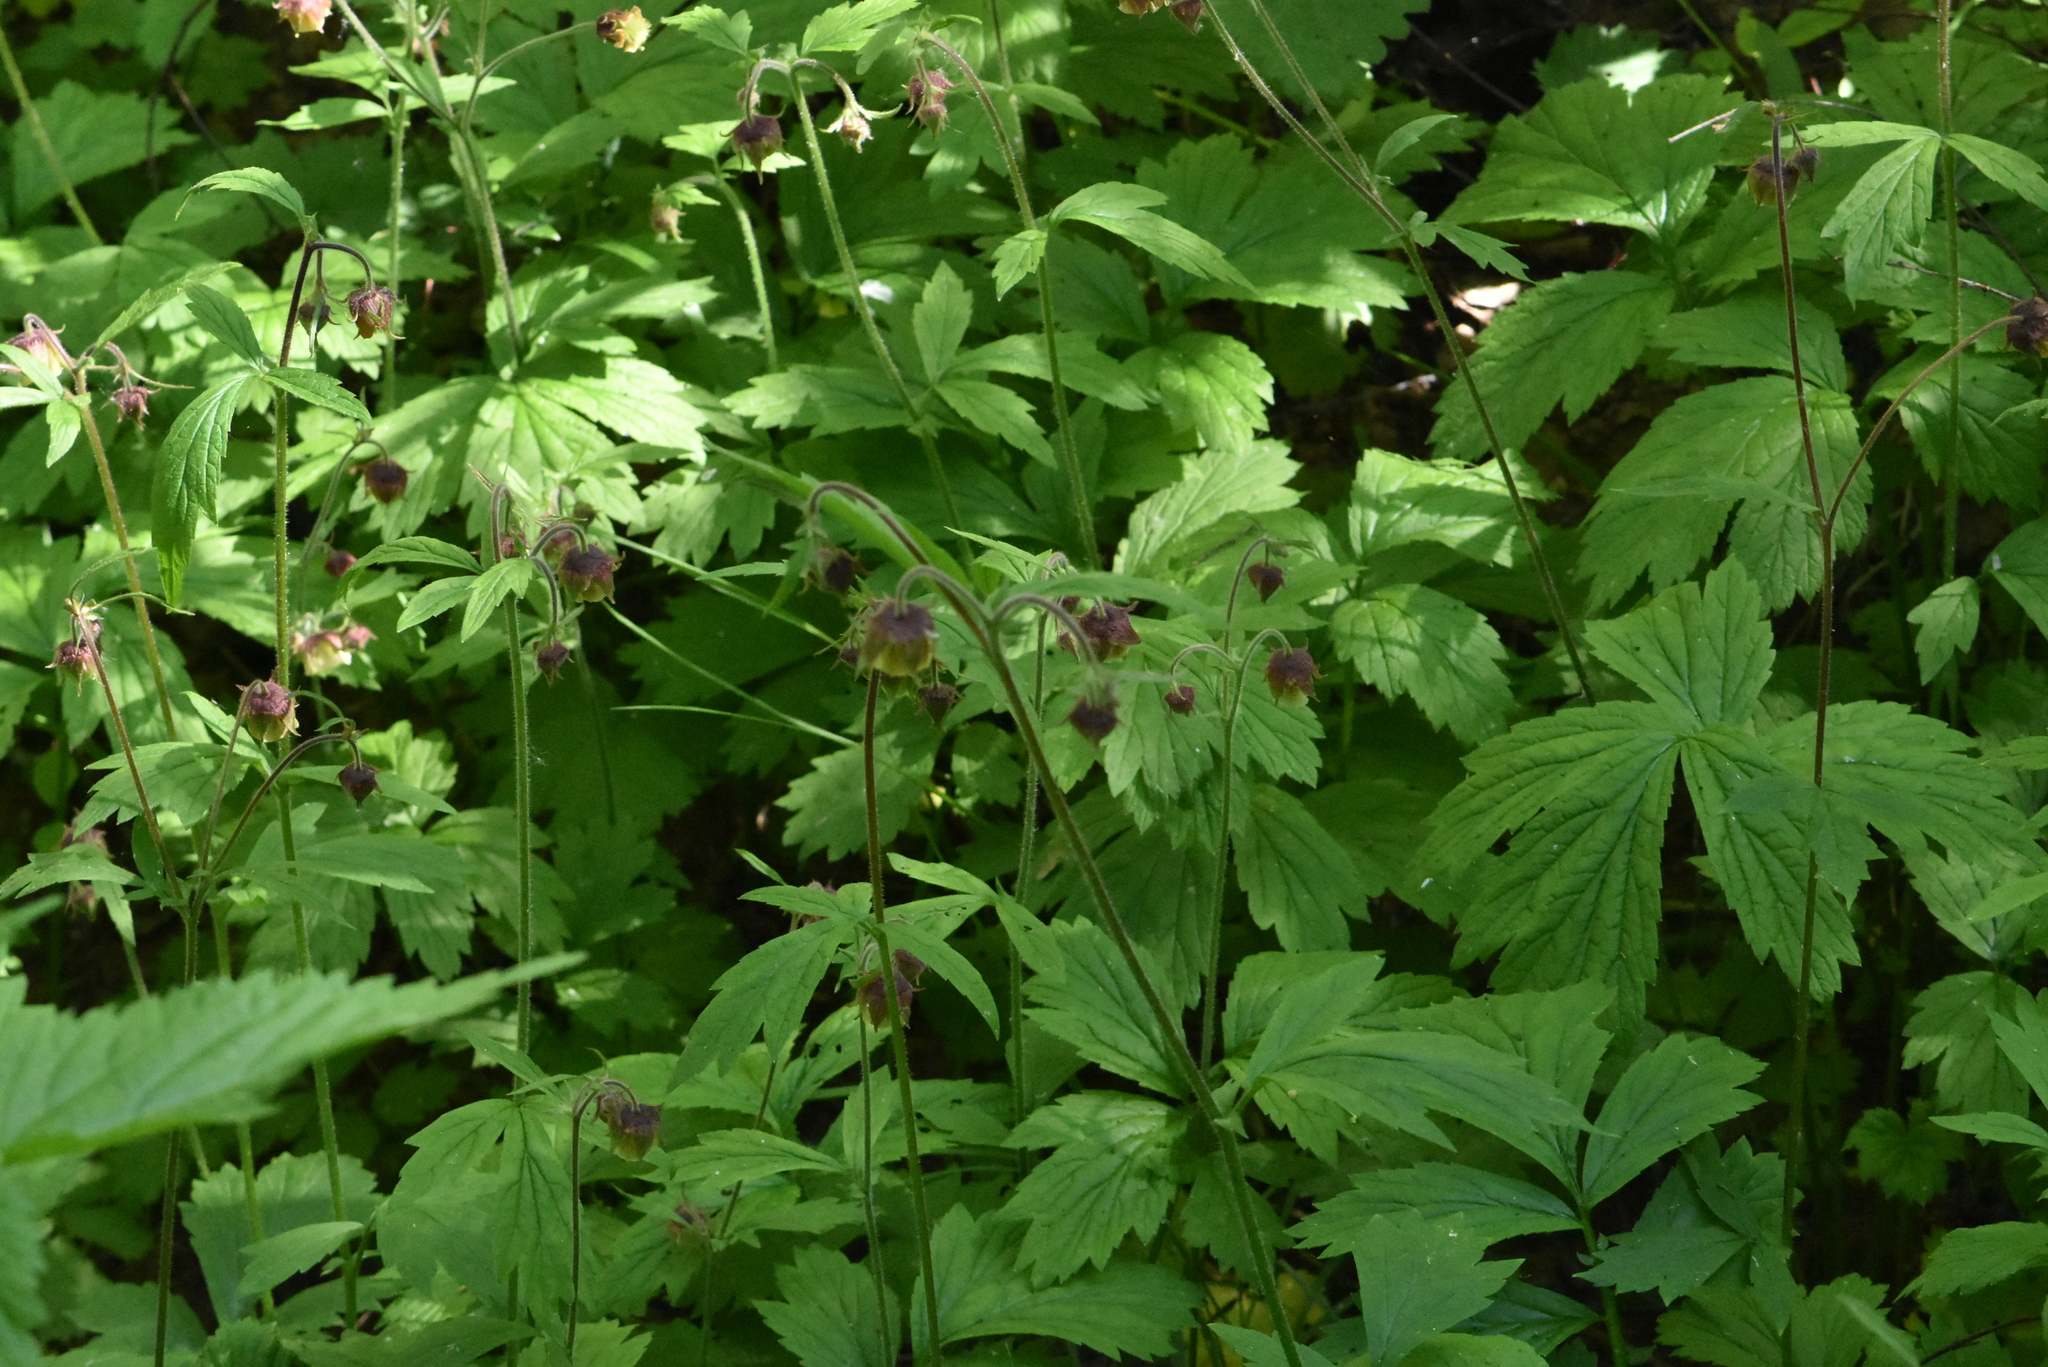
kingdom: Plantae
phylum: Tracheophyta
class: Magnoliopsida
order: Rosales
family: Rosaceae
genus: Geum
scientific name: Geum rivale
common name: Water avens
